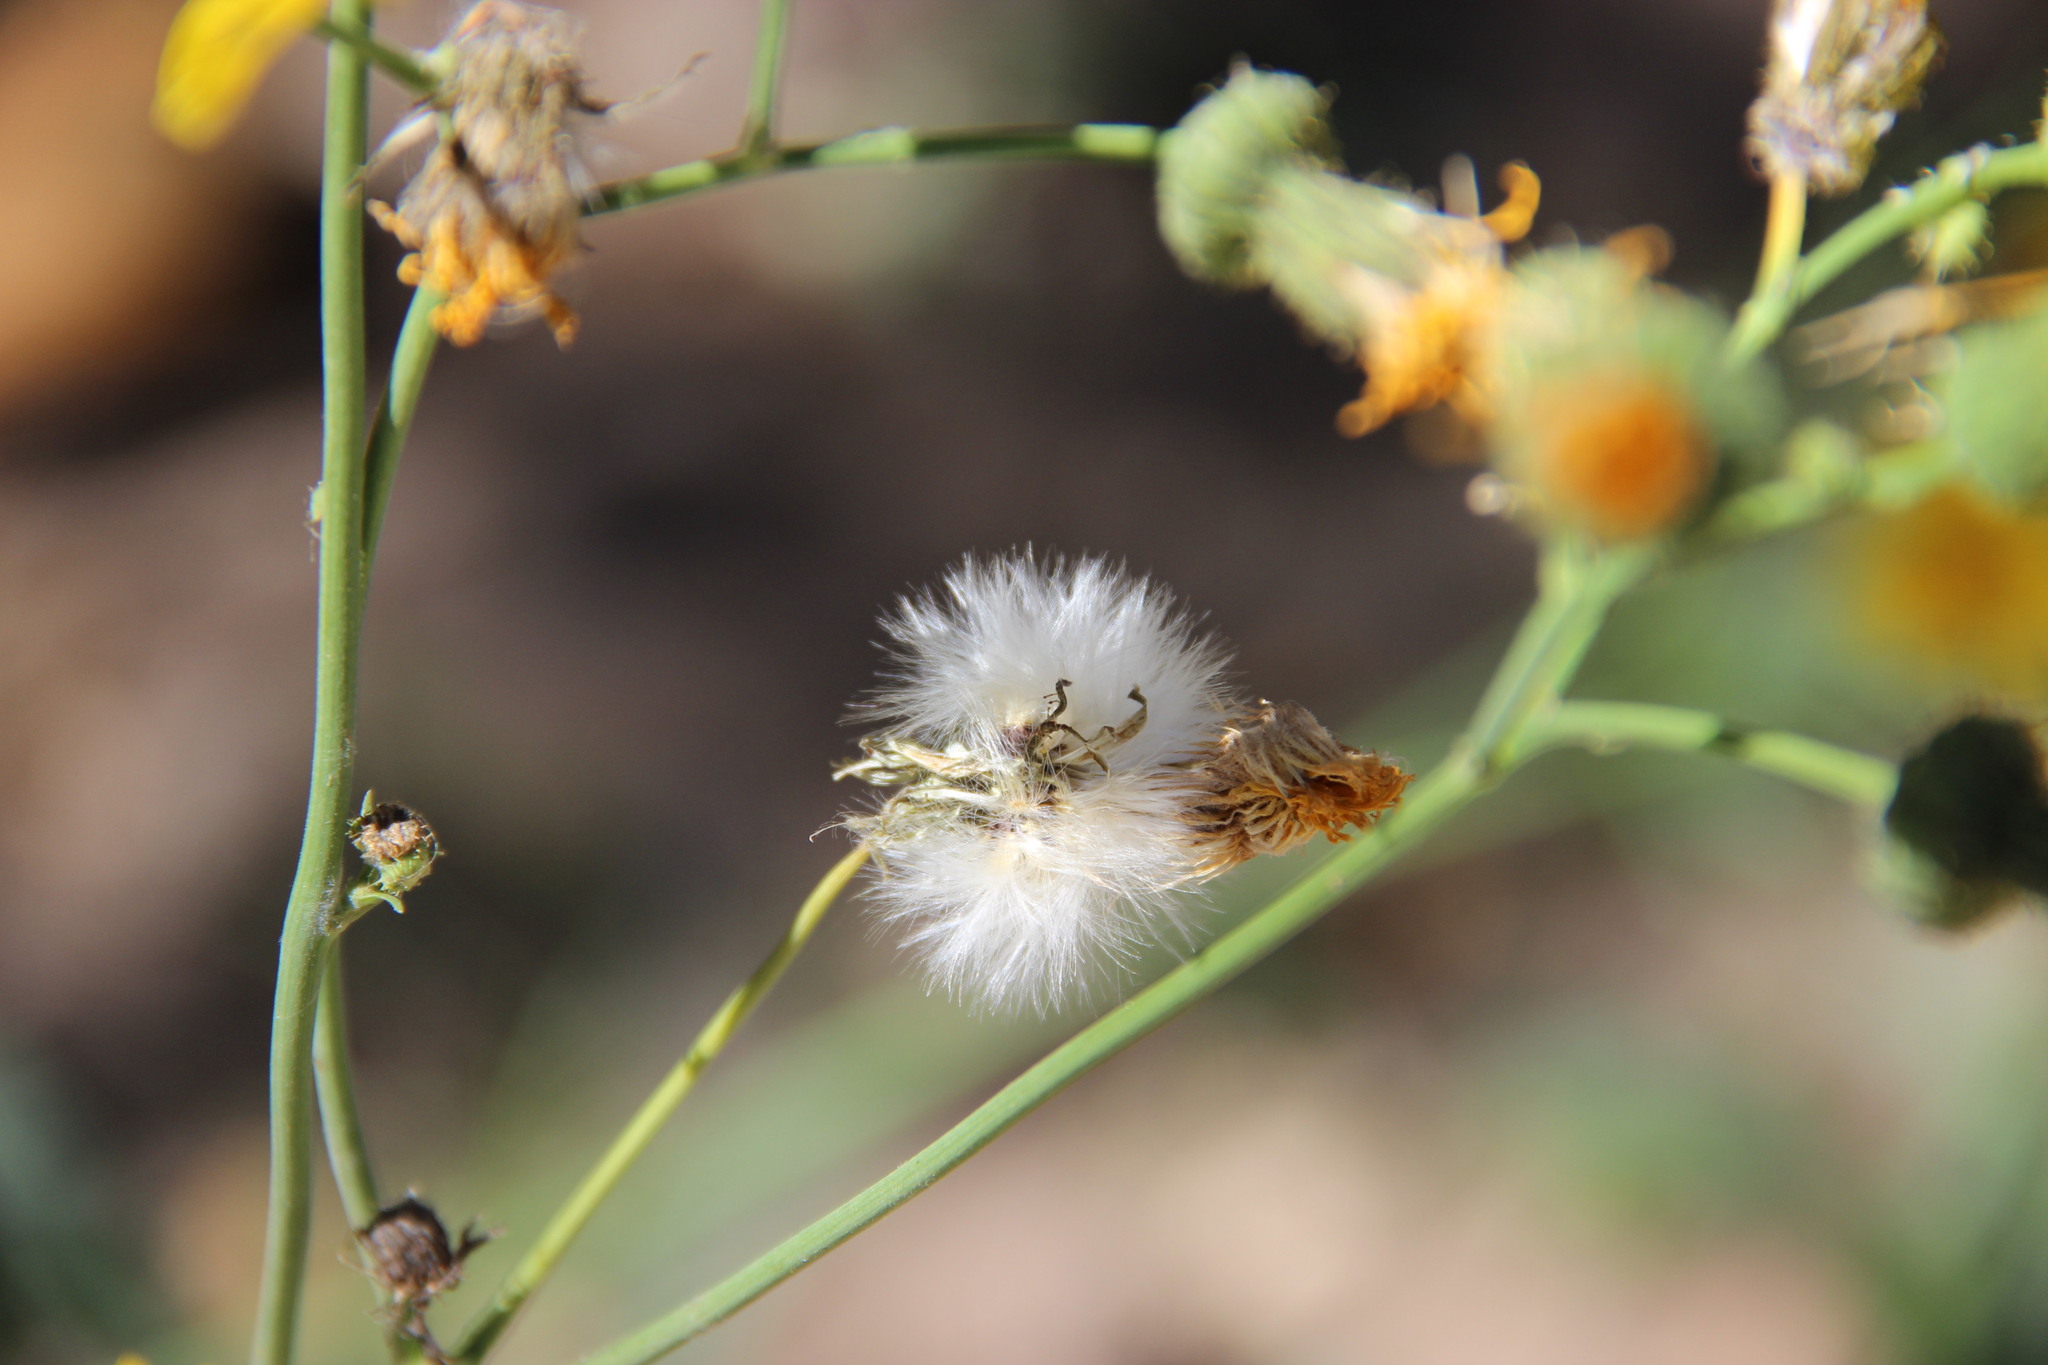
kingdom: Plantae
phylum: Tracheophyta
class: Magnoliopsida
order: Asterales
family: Asteraceae
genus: Sonchus
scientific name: Sonchus arvensis
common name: Perennial sow-thistle
